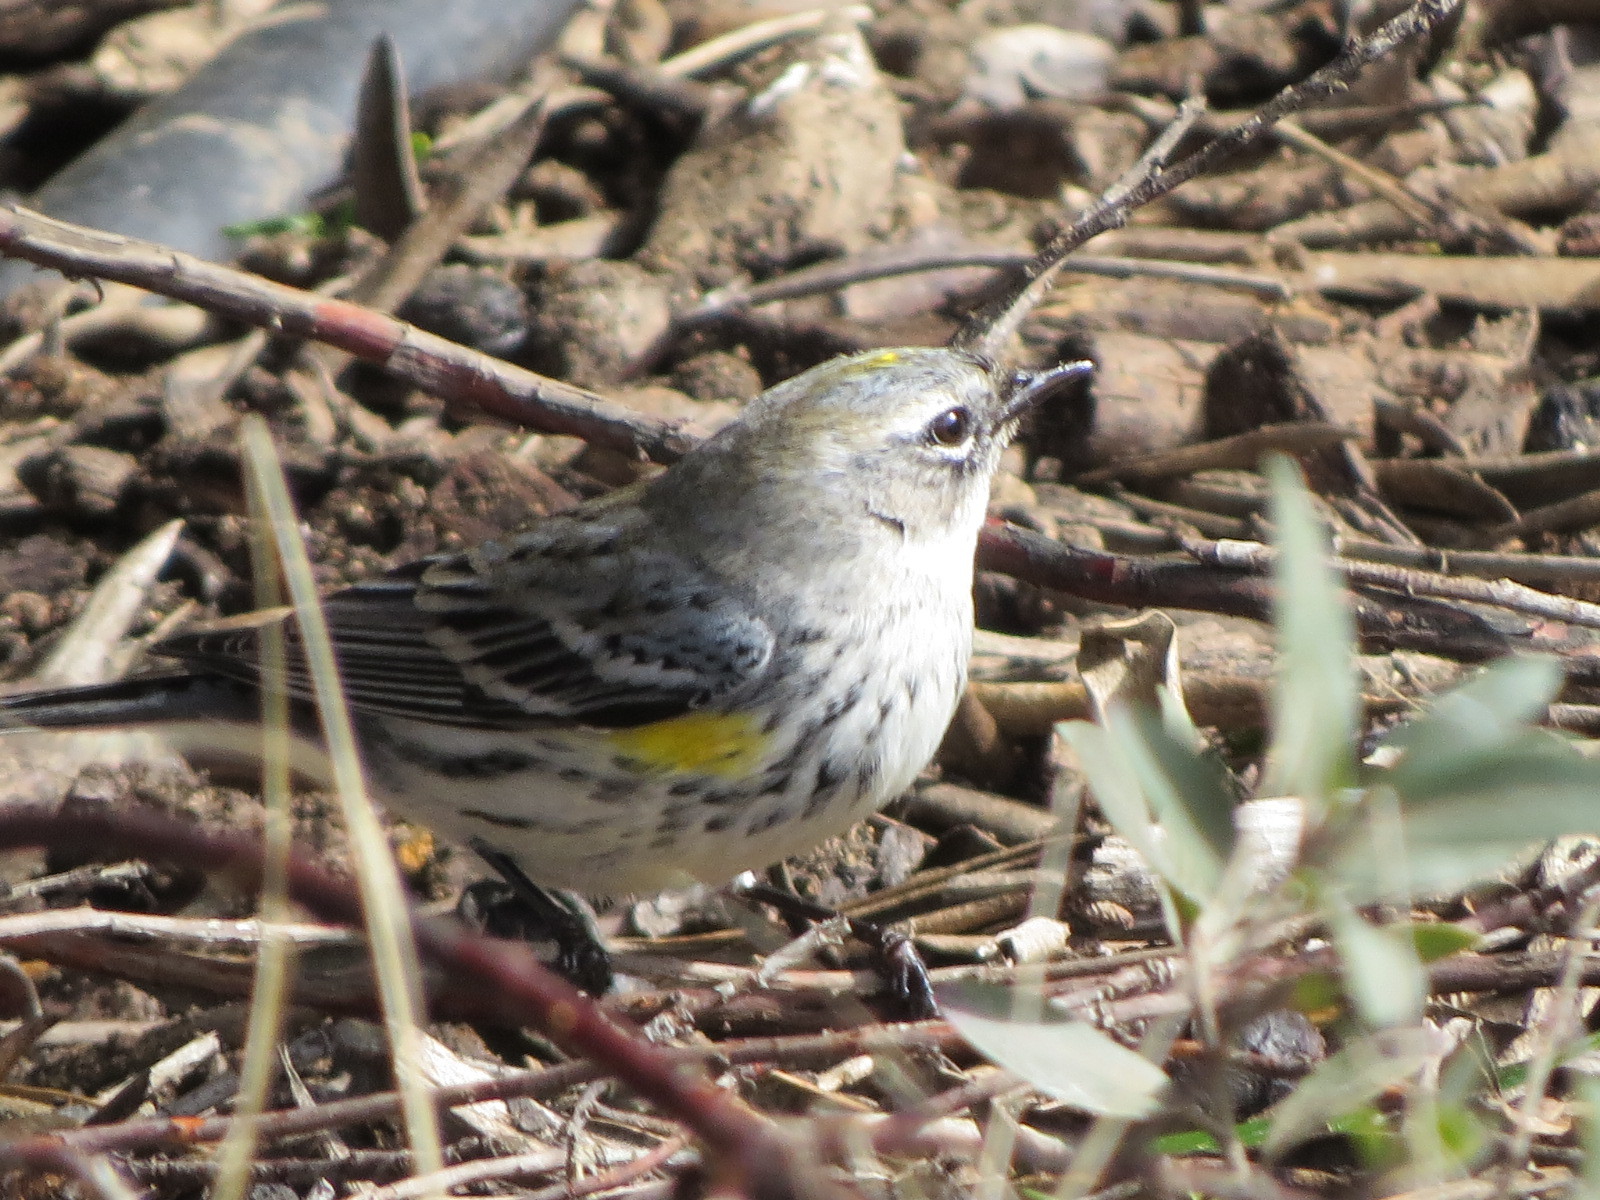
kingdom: Animalia
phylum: Chordata
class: Aves
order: Passeriformes
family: Parulidae
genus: Setophaga
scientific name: Setophaga coronata
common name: Myrtle warbler
